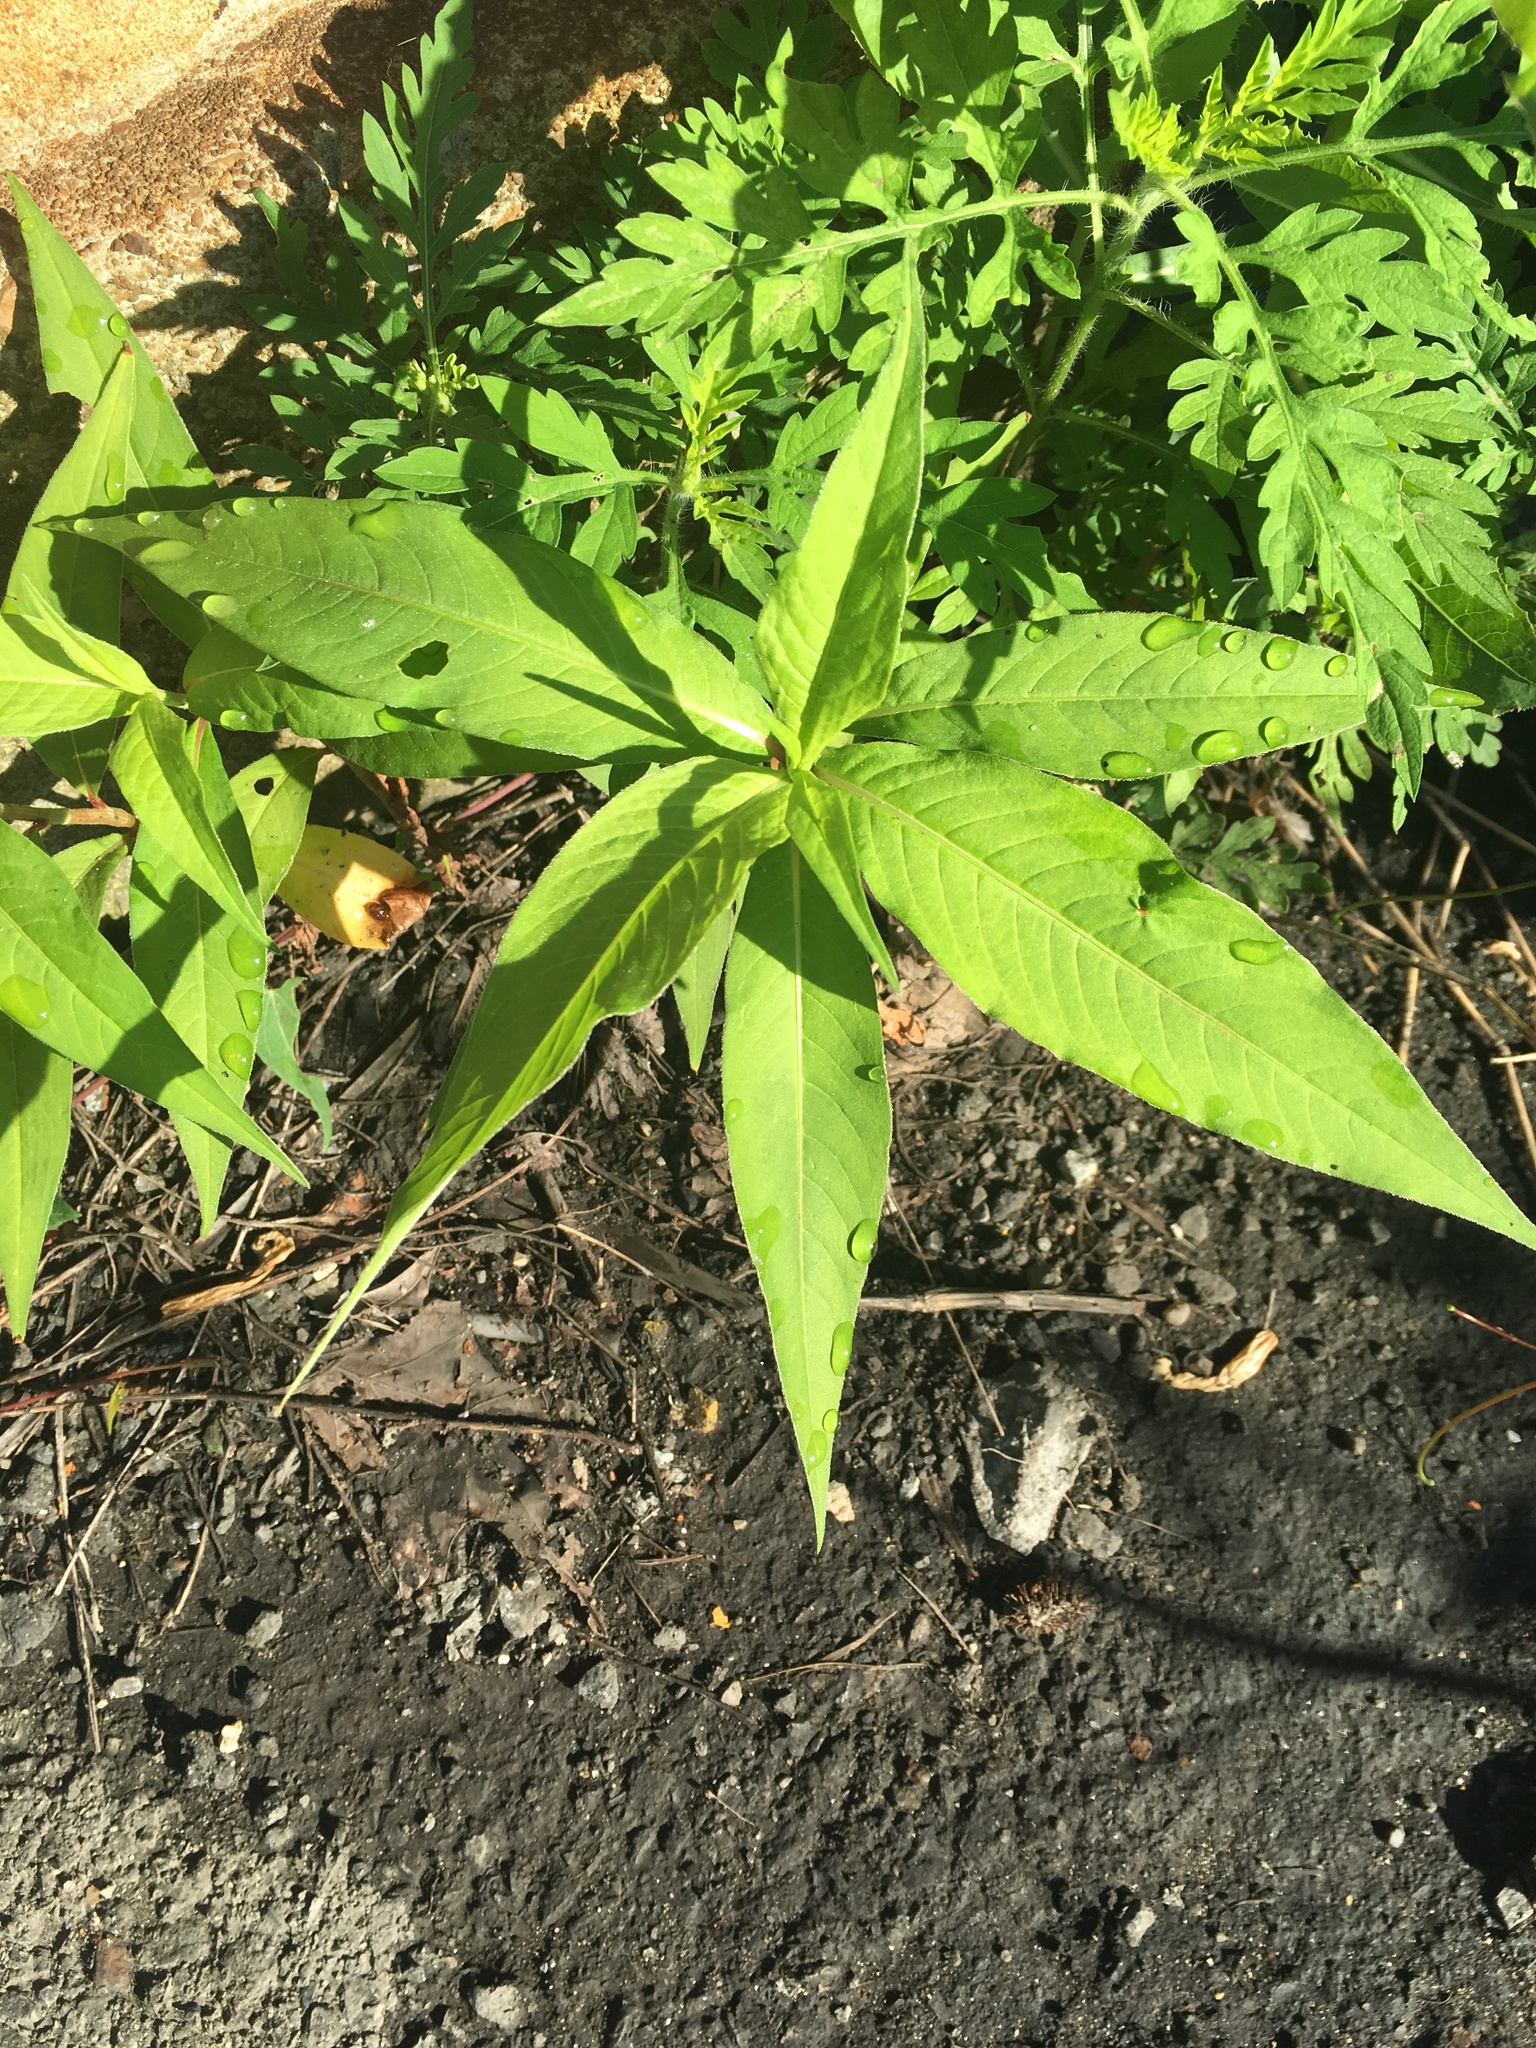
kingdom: Plantae
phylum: Tracheophyta
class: Magnoliopsida
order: Caryophyllales
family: Polygonaceae
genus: Persicaria
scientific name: Persicaria extremiorientalis
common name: Far-eastern smartweed
